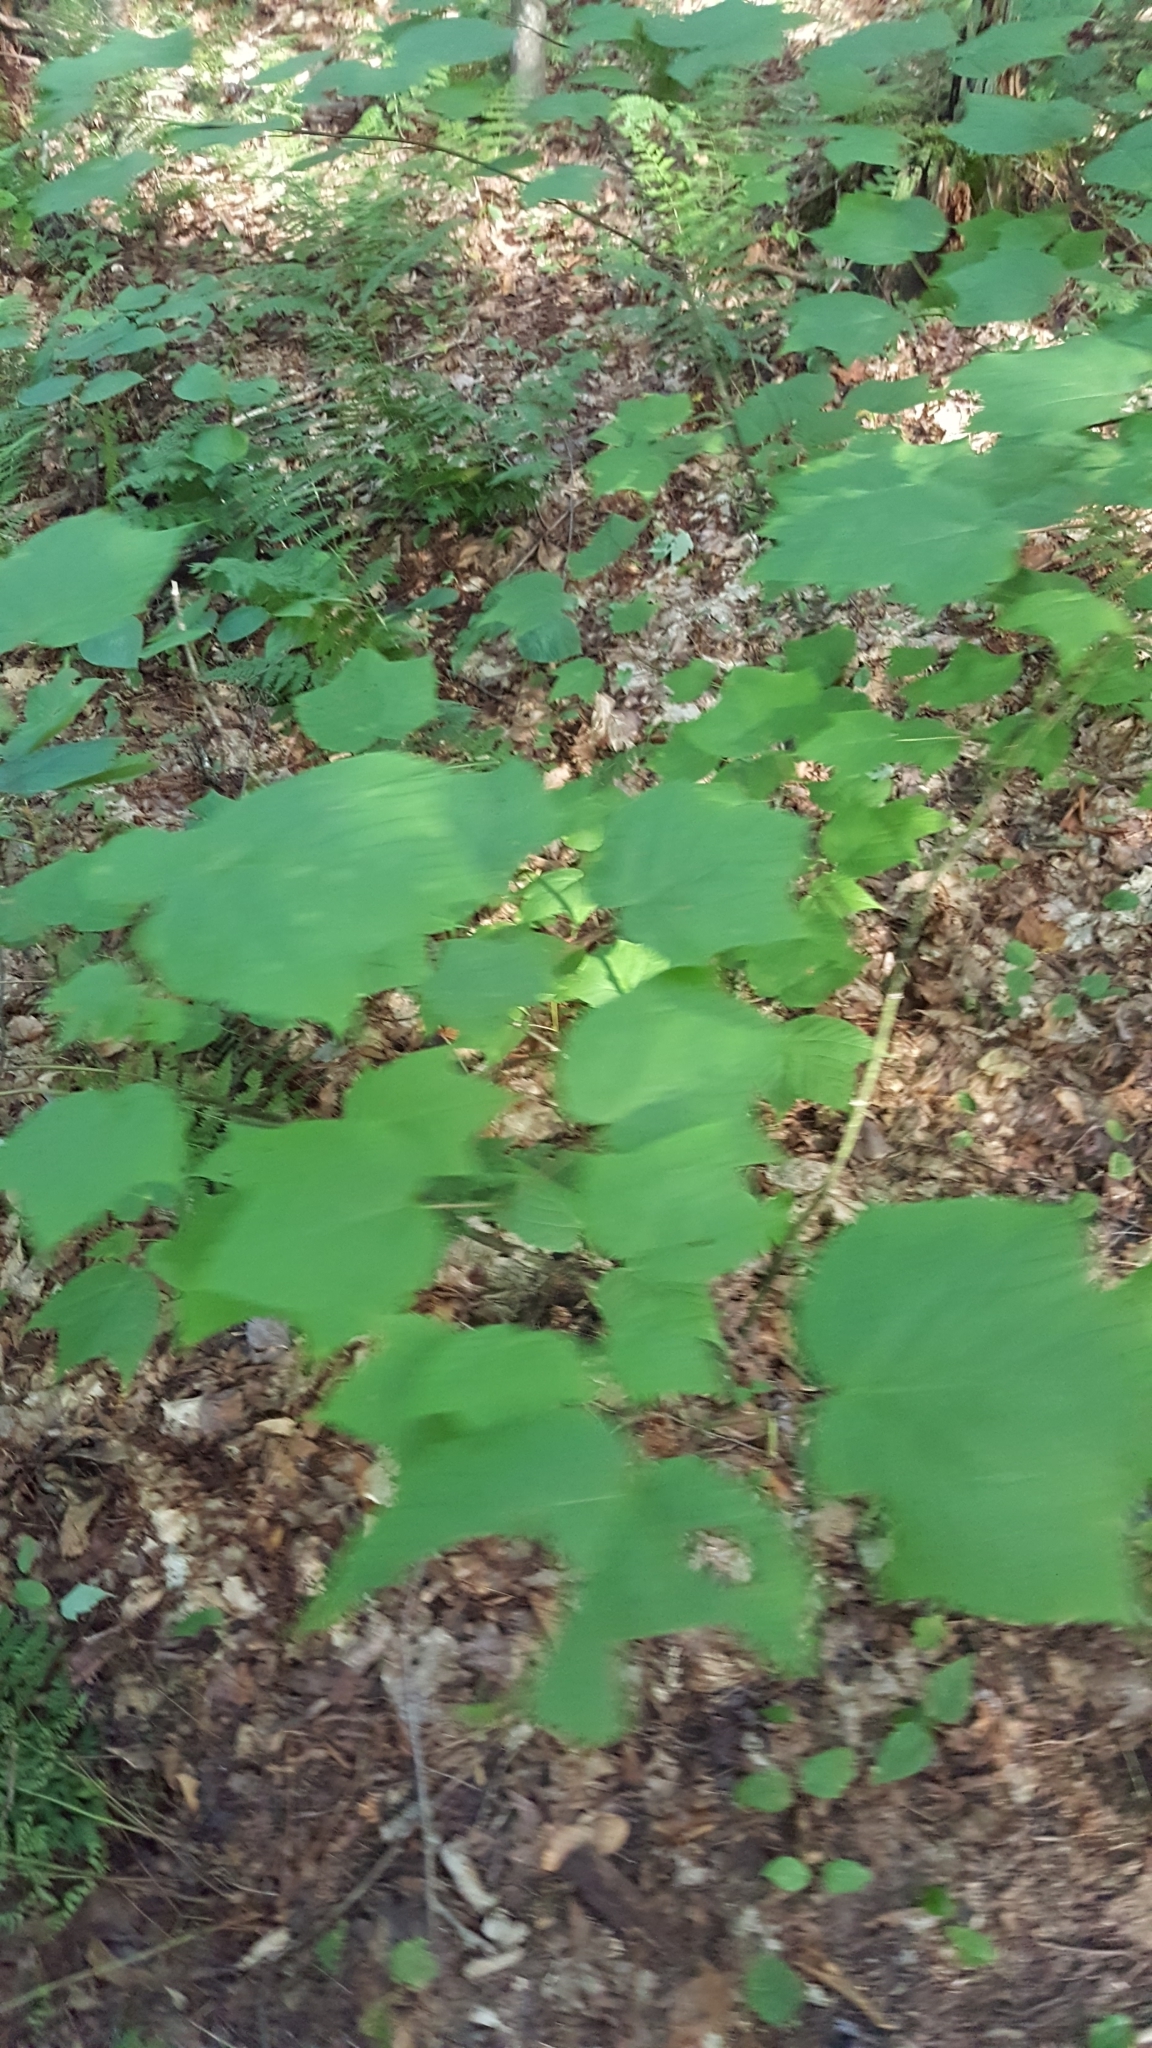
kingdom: Plantae
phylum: Tracheophyta
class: Magnoliopsida
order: Sapindales
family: Sapindaceae
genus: Acer
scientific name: Acer pensylvanicum
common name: Moosewood
